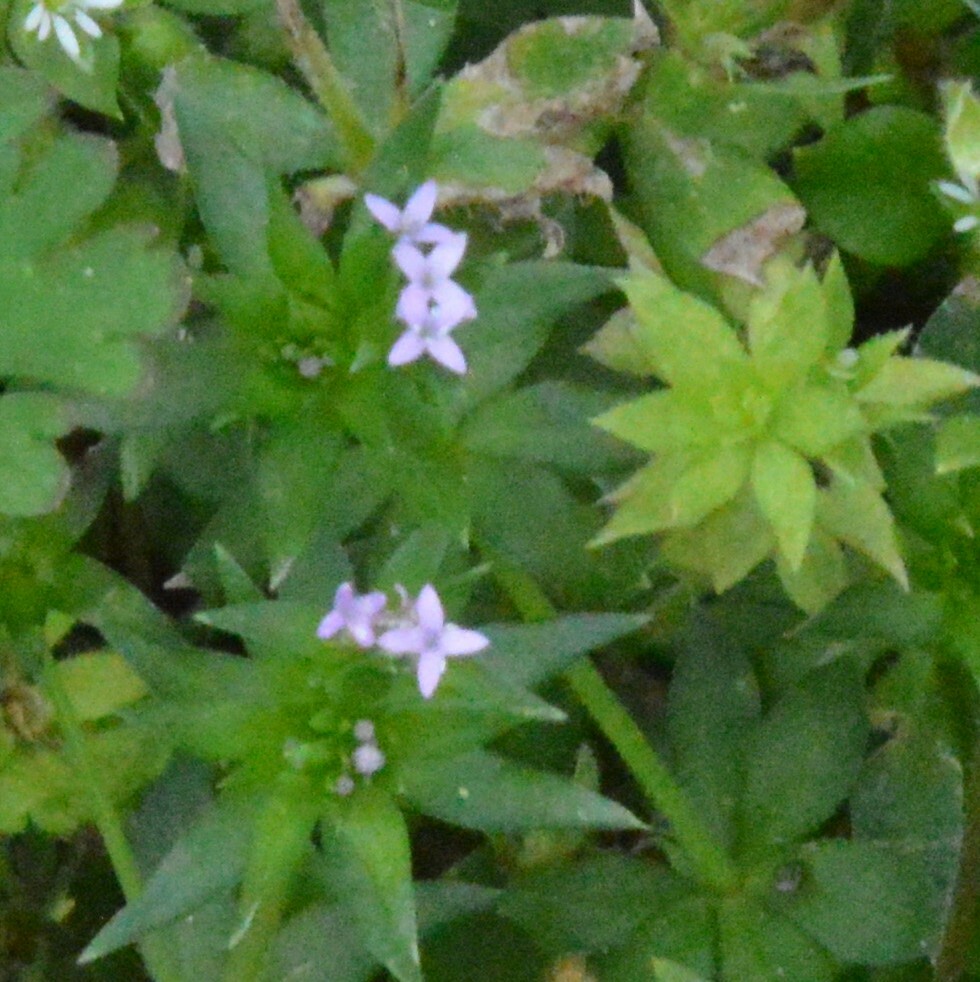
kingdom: Plantae
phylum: Tracheophyta
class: Magnoliopsida
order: Gentianales
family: Rubiaceae
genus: Sherardia
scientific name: Sherardia arvensis
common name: Field madder
